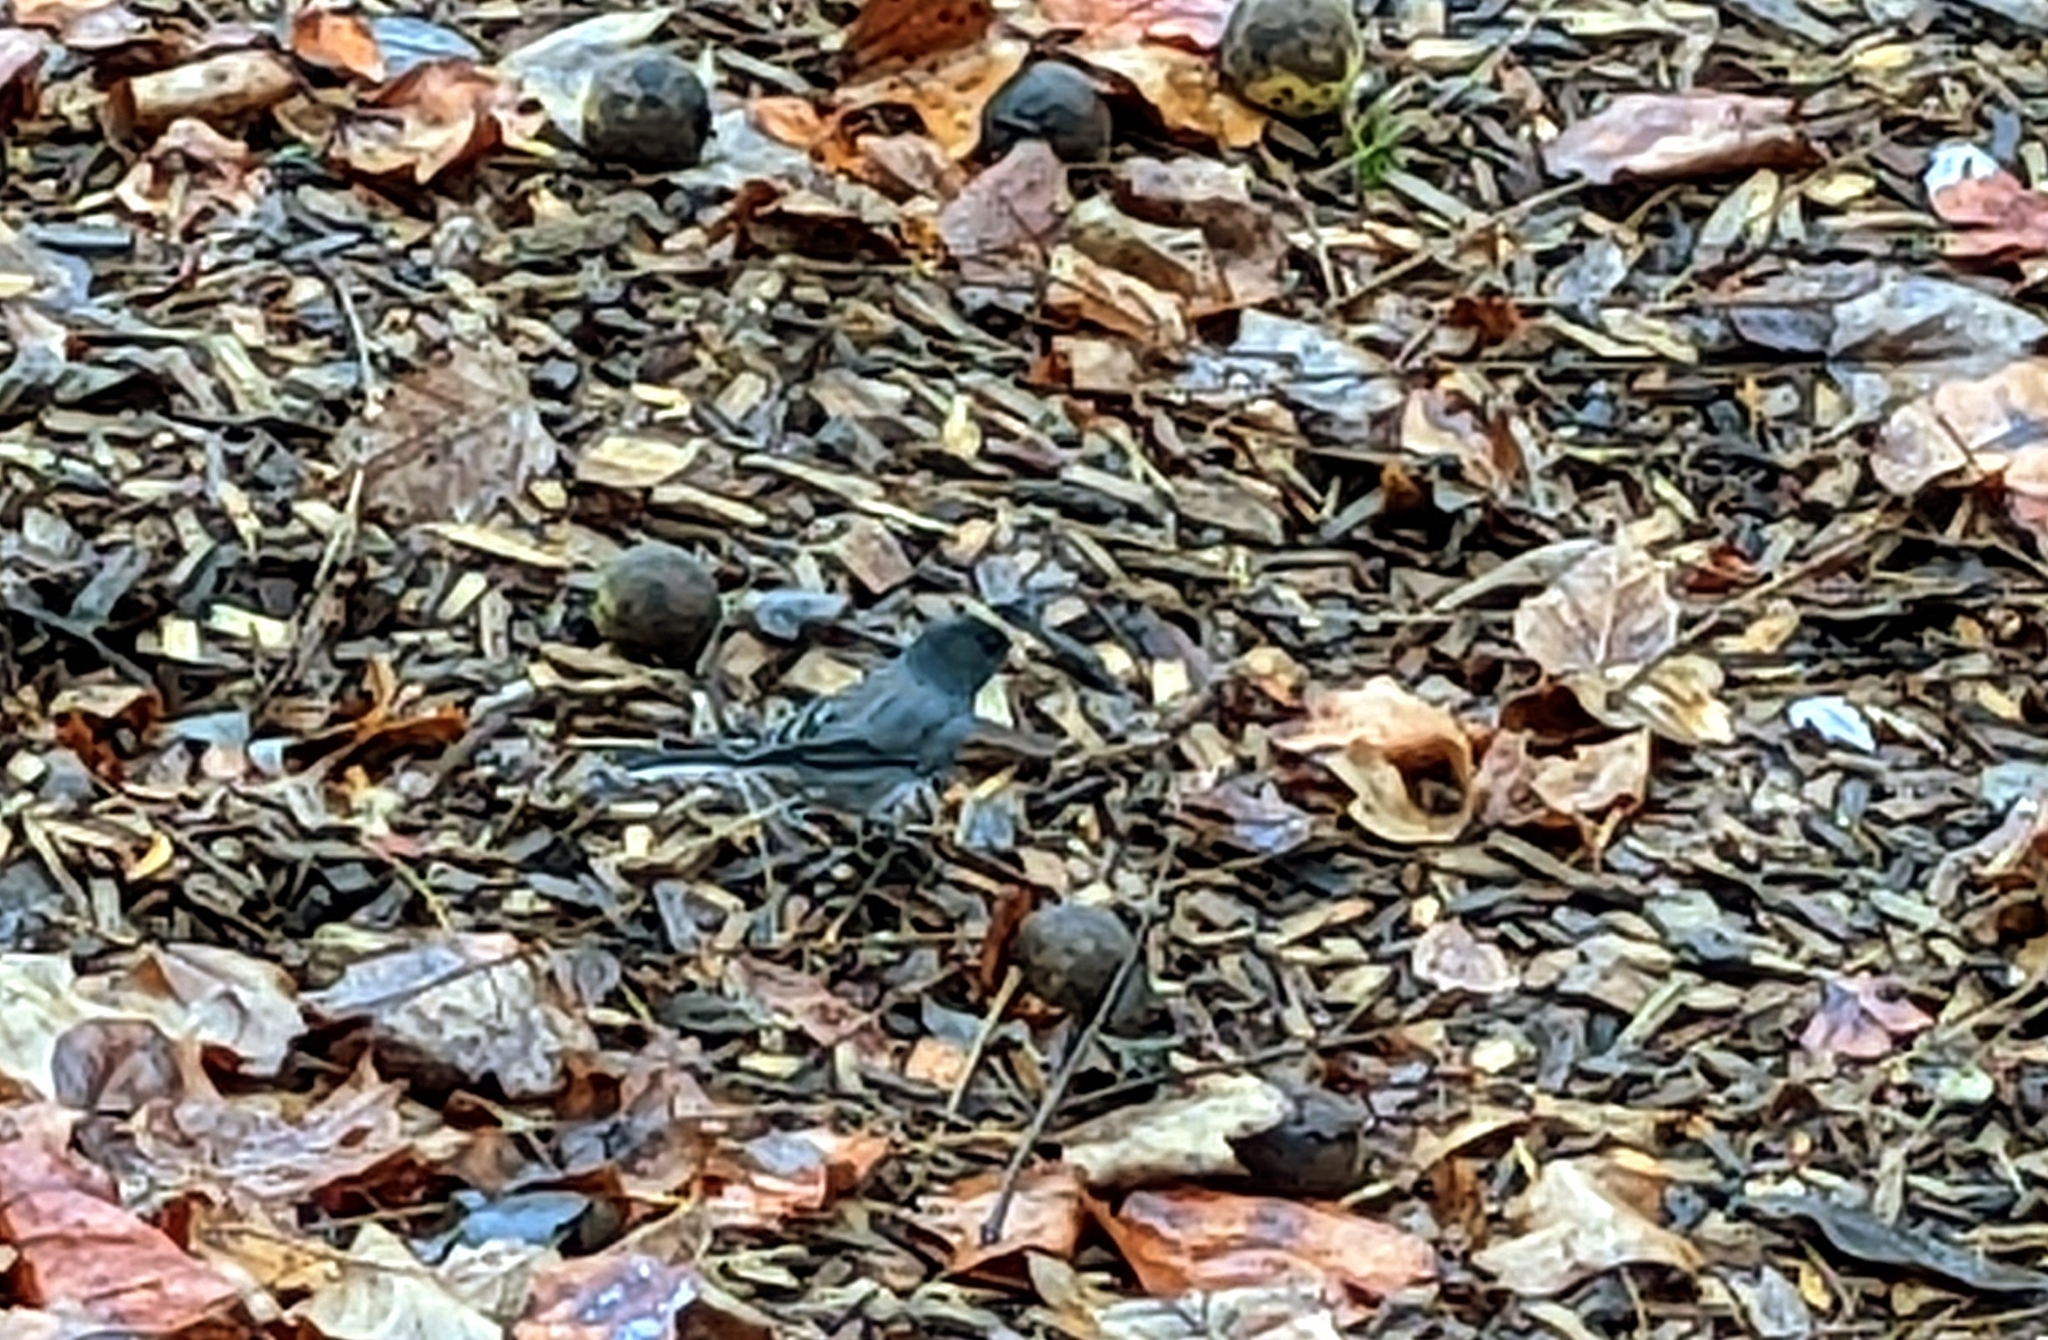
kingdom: Animalia
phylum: Chordata
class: Aves
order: Passeriformes
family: Passerellidae
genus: Junco
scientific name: Junco hyemalis
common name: Dark-eyed junco
